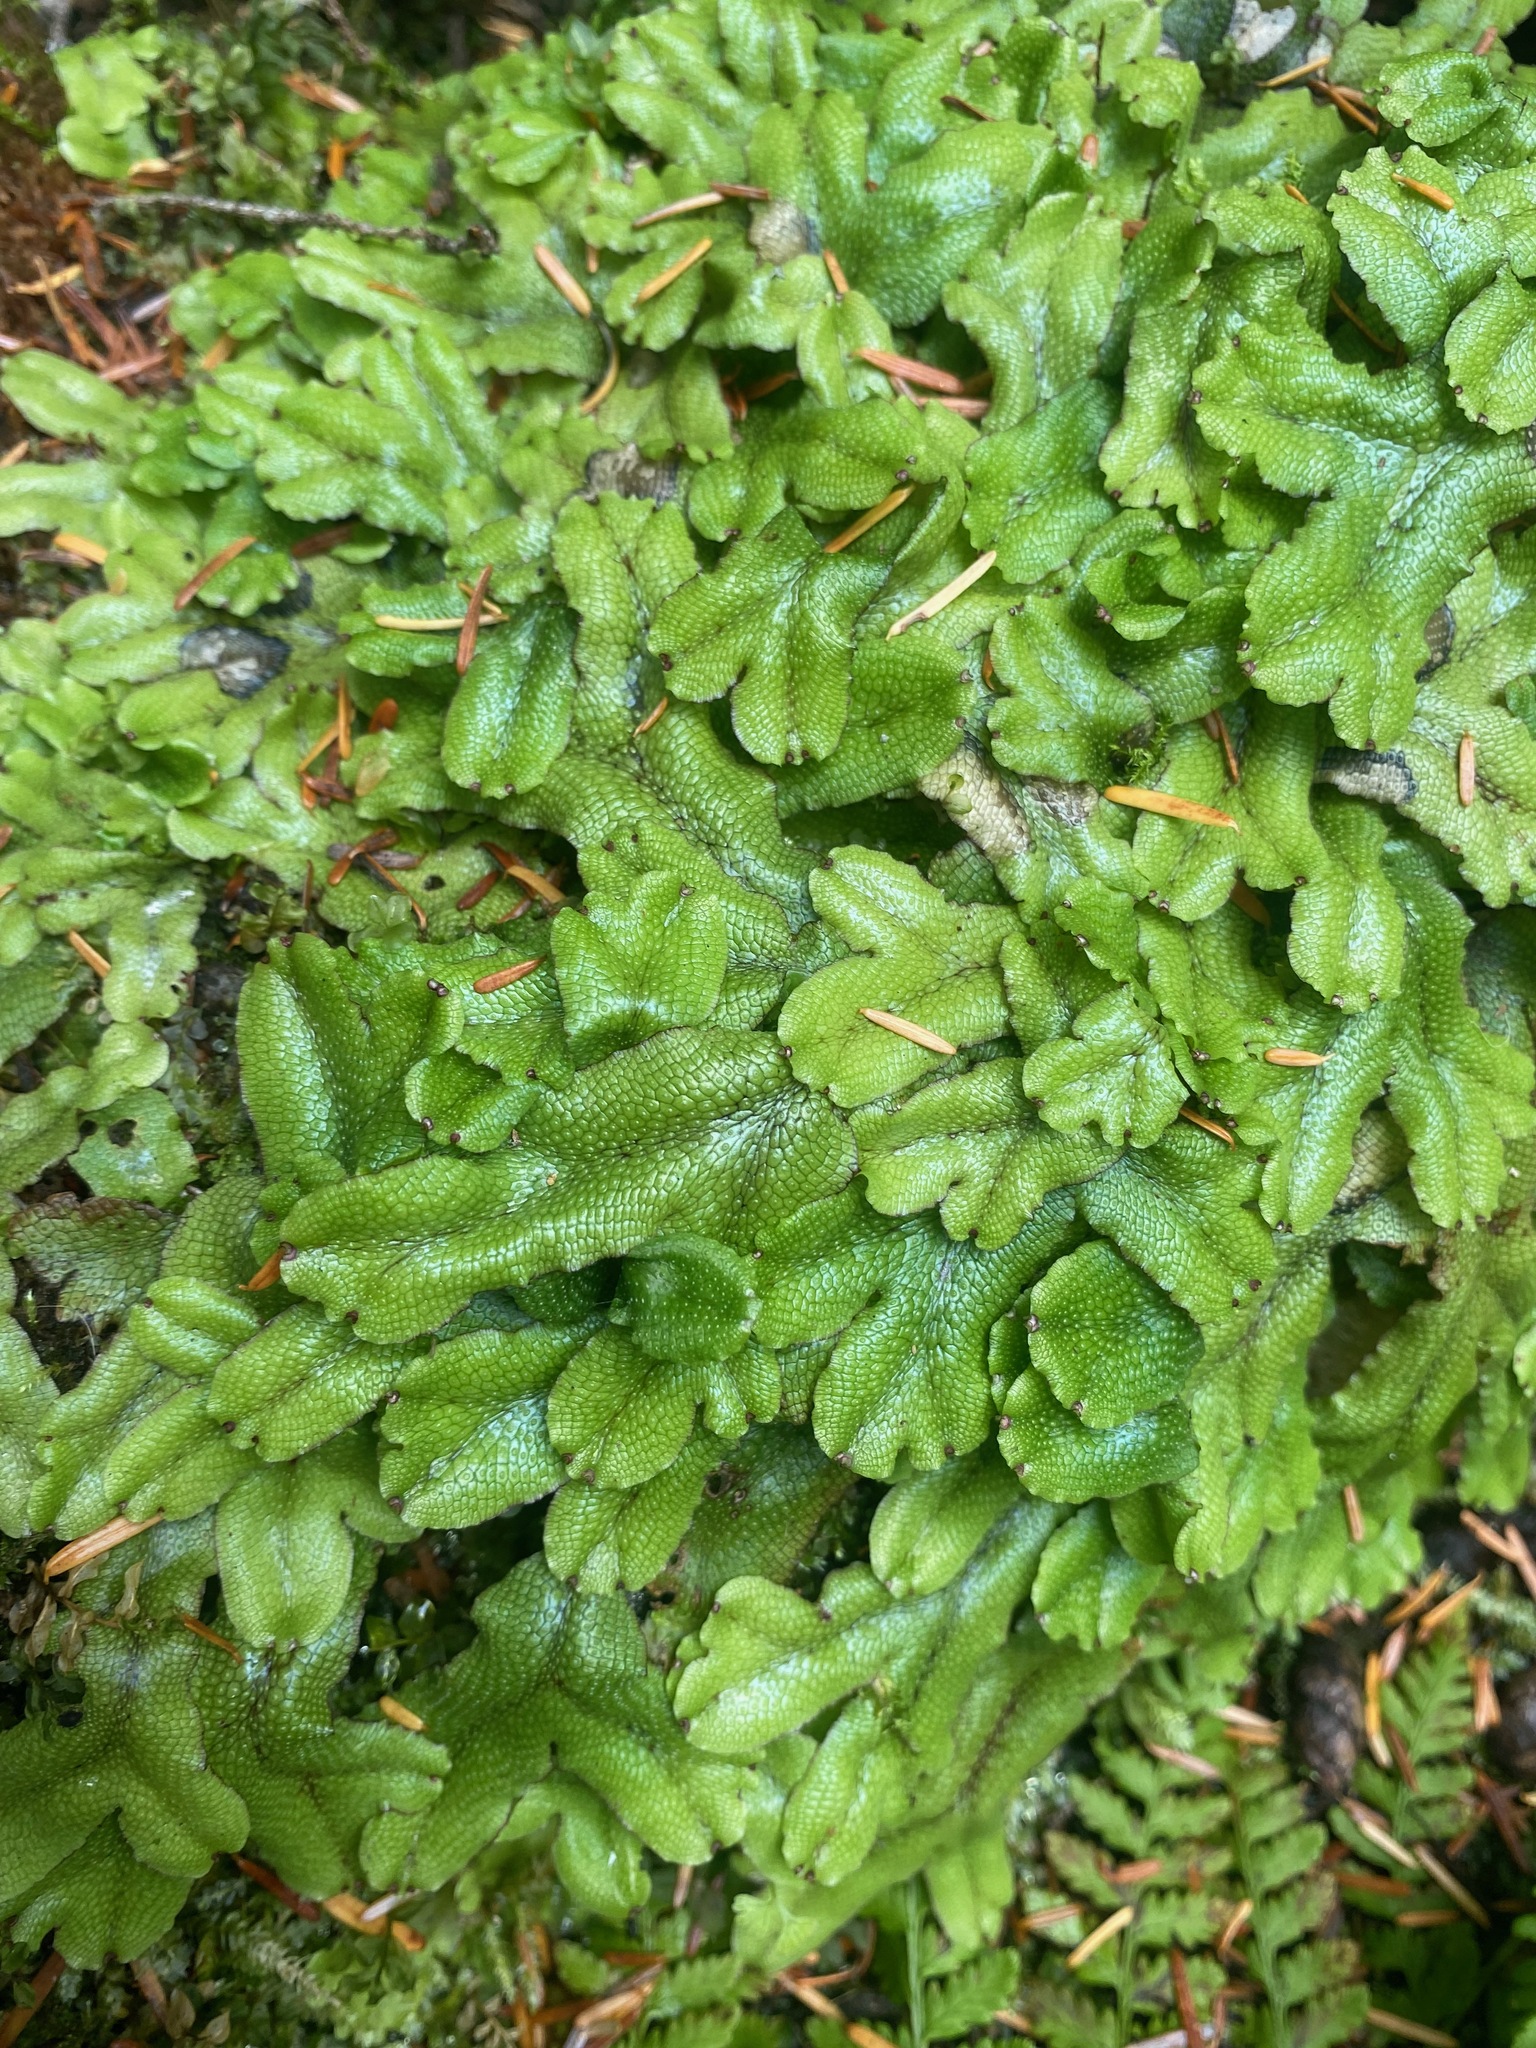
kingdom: Plantae
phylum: Marchantiophyta
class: Marchantiopsida
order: Marchantiales
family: Conocephalaceae
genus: Conocephalum
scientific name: Conocephalum salebrosum
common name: Cat-tongue liverwort
